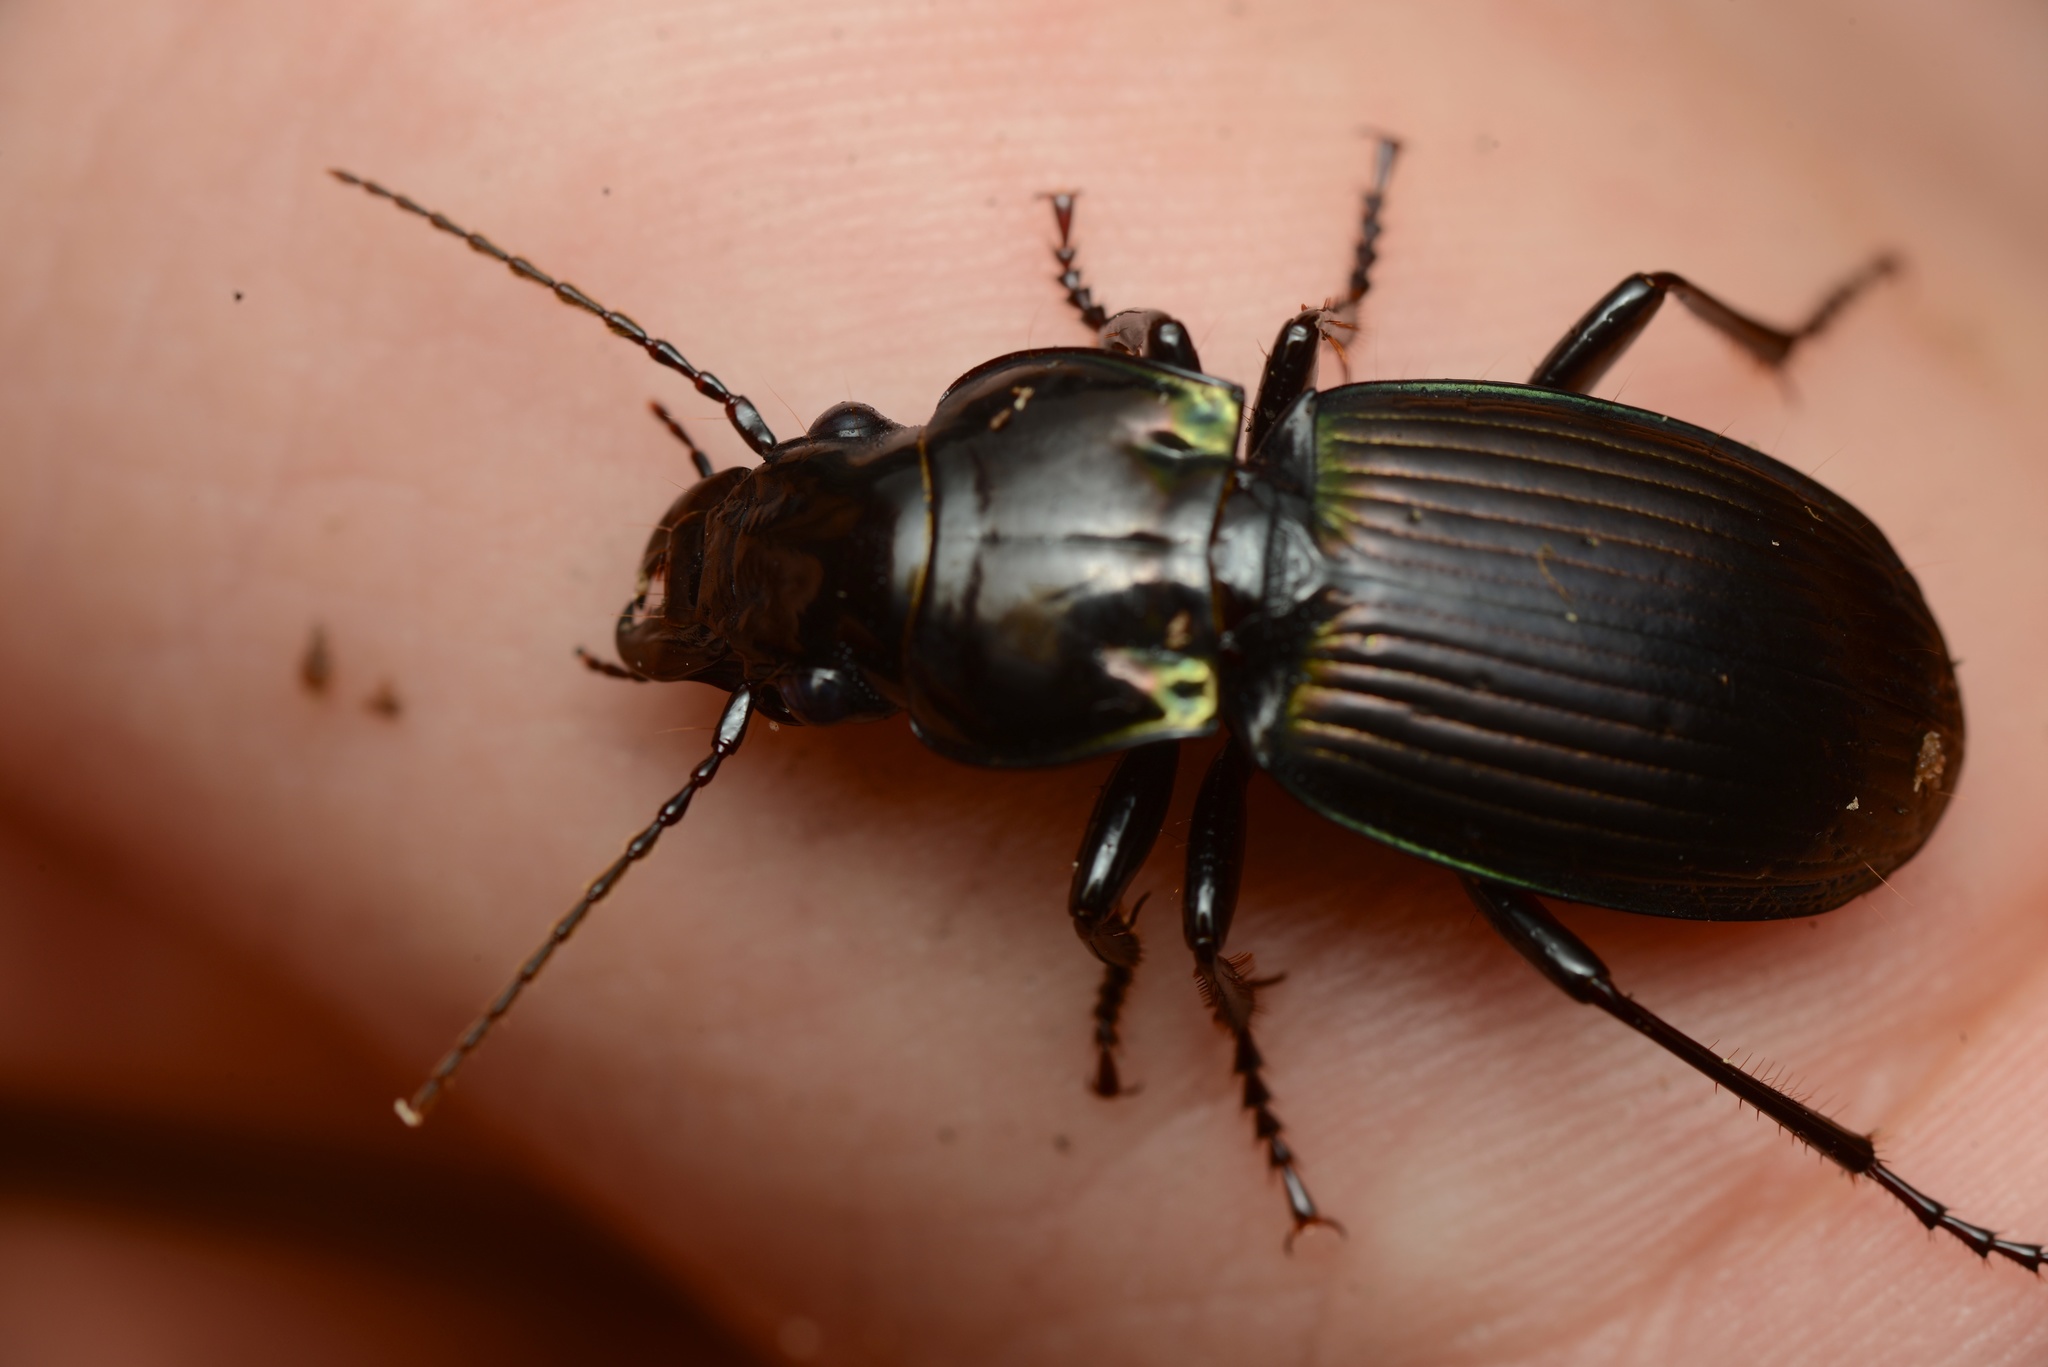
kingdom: Animalia
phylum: Arthropoda
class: Insecta
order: Coleoptera
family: Carabidae
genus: Megadromus
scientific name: Megadromus antarcticus
